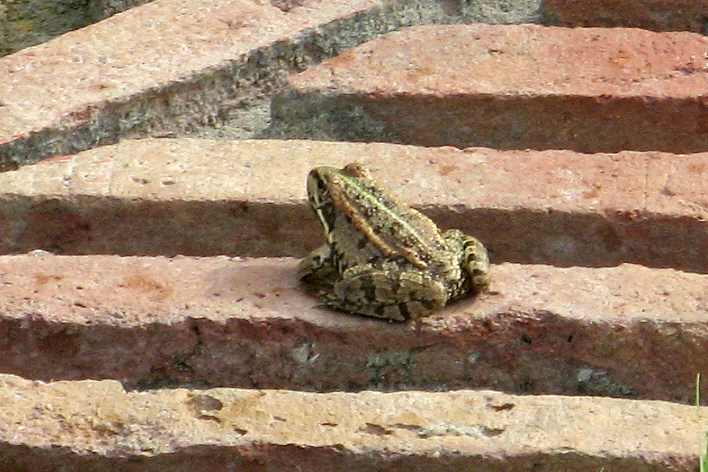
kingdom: Animalia
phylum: Chordata
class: Amphibia
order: Anura
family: Ranidae
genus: Pelophylax
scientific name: Pelophylax perezi
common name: Perez's frog
